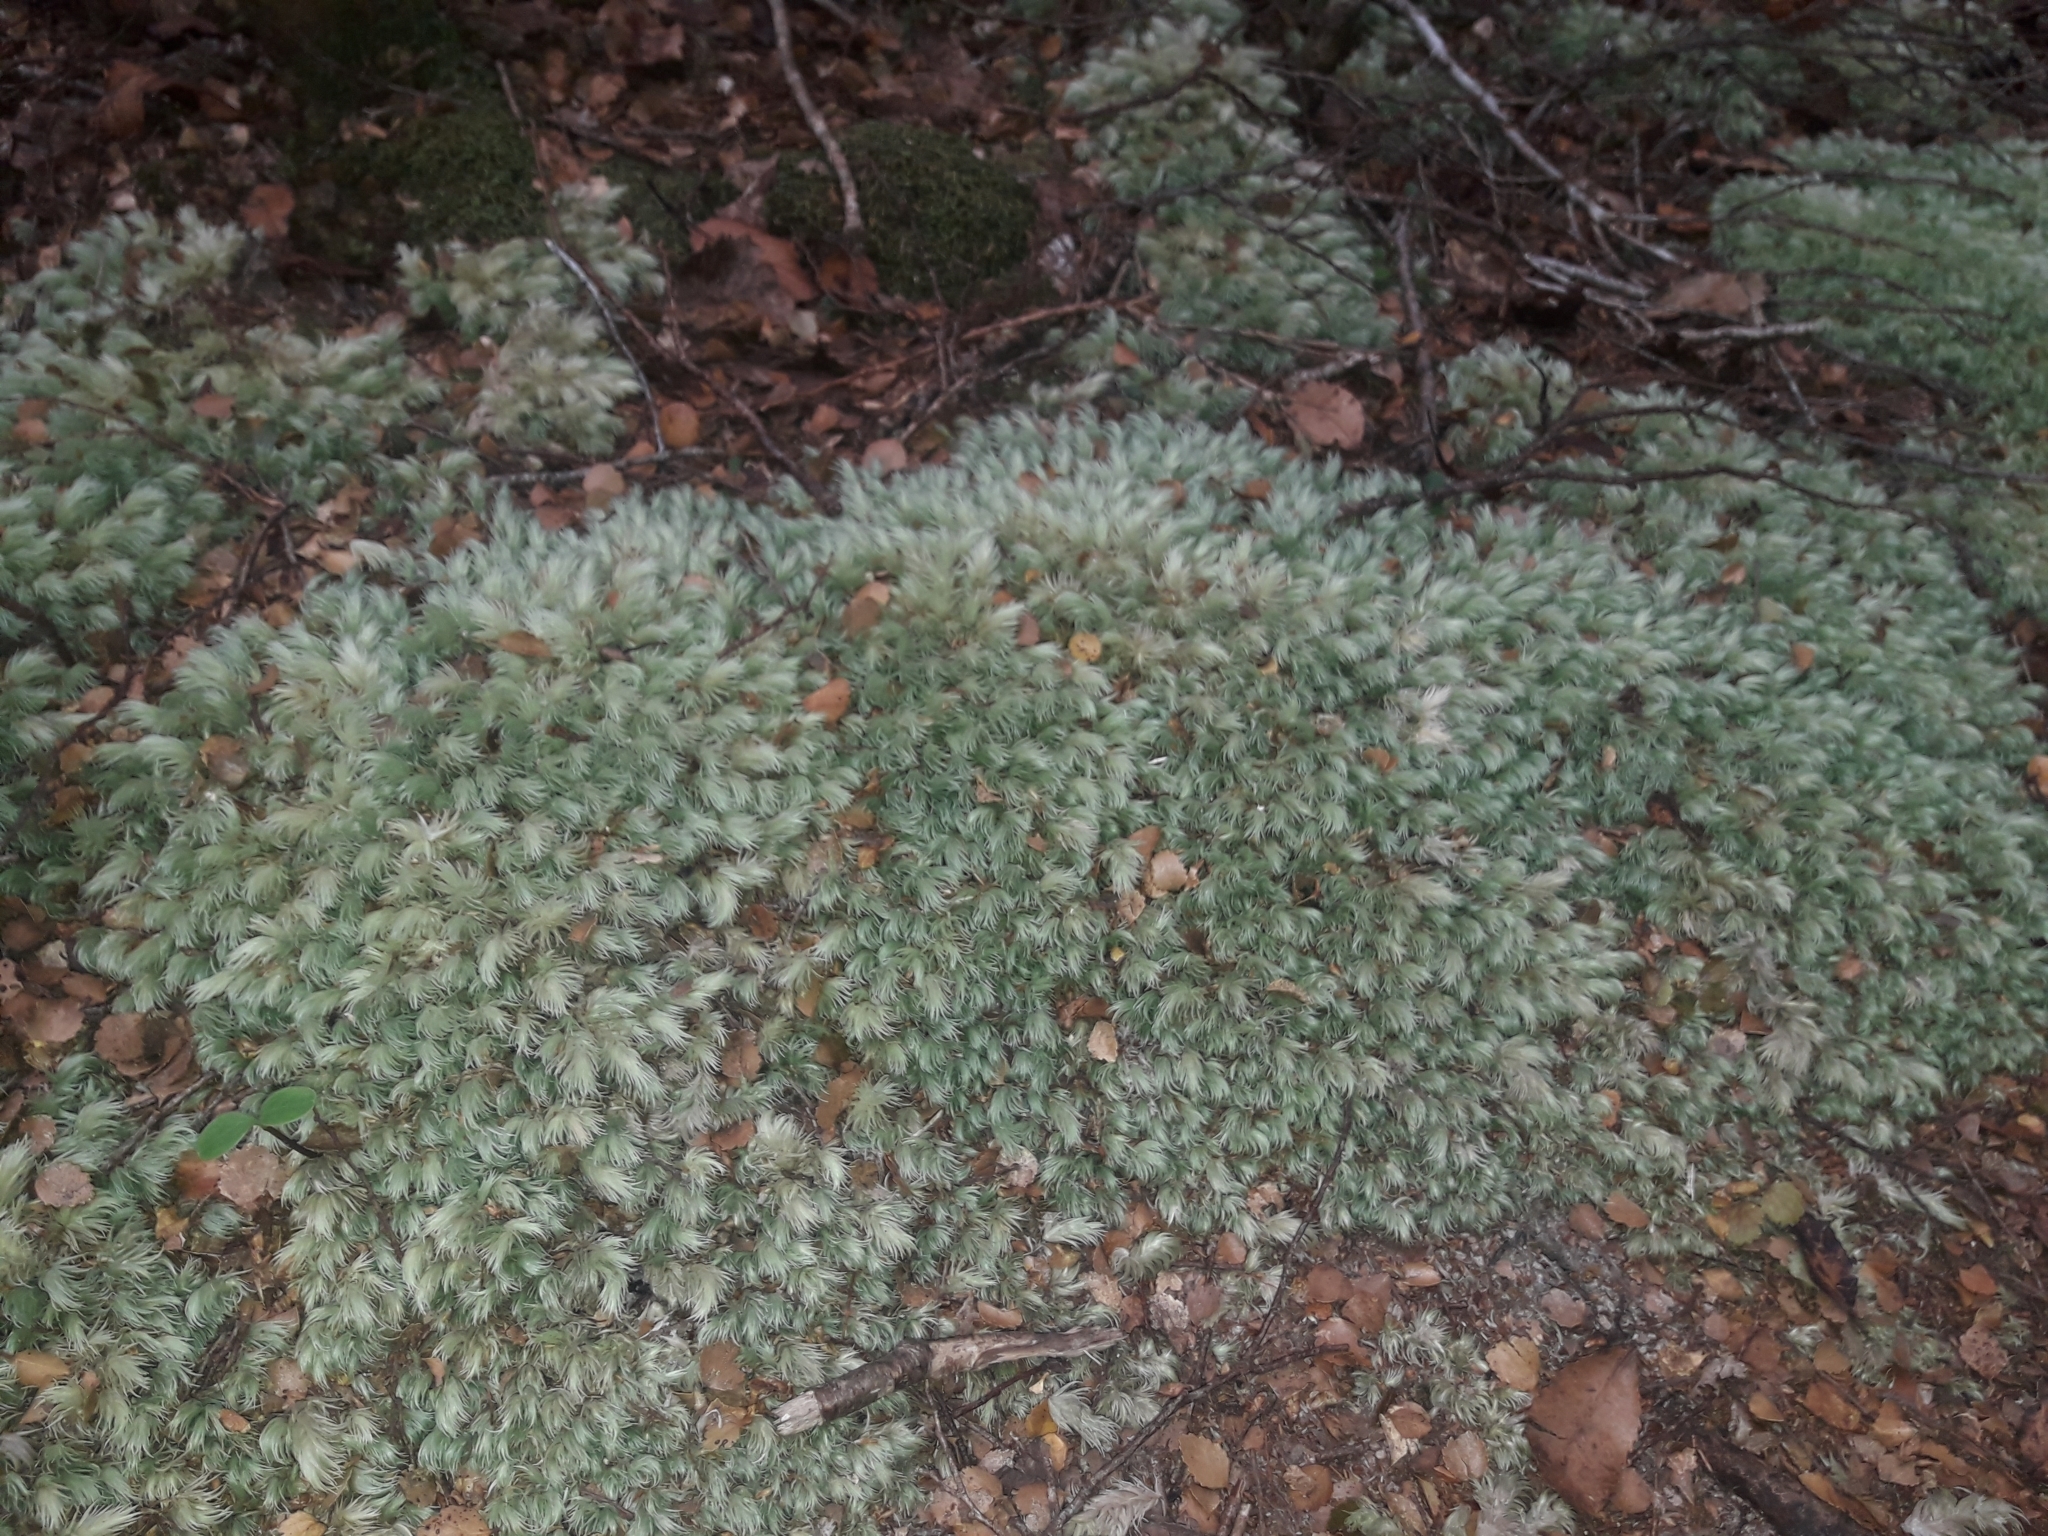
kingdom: Plantae
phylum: Bryophyta
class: Bryopsida
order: Dicranales
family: Leucobryaceae
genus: Leucobryum
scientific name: Leucobryum javense
